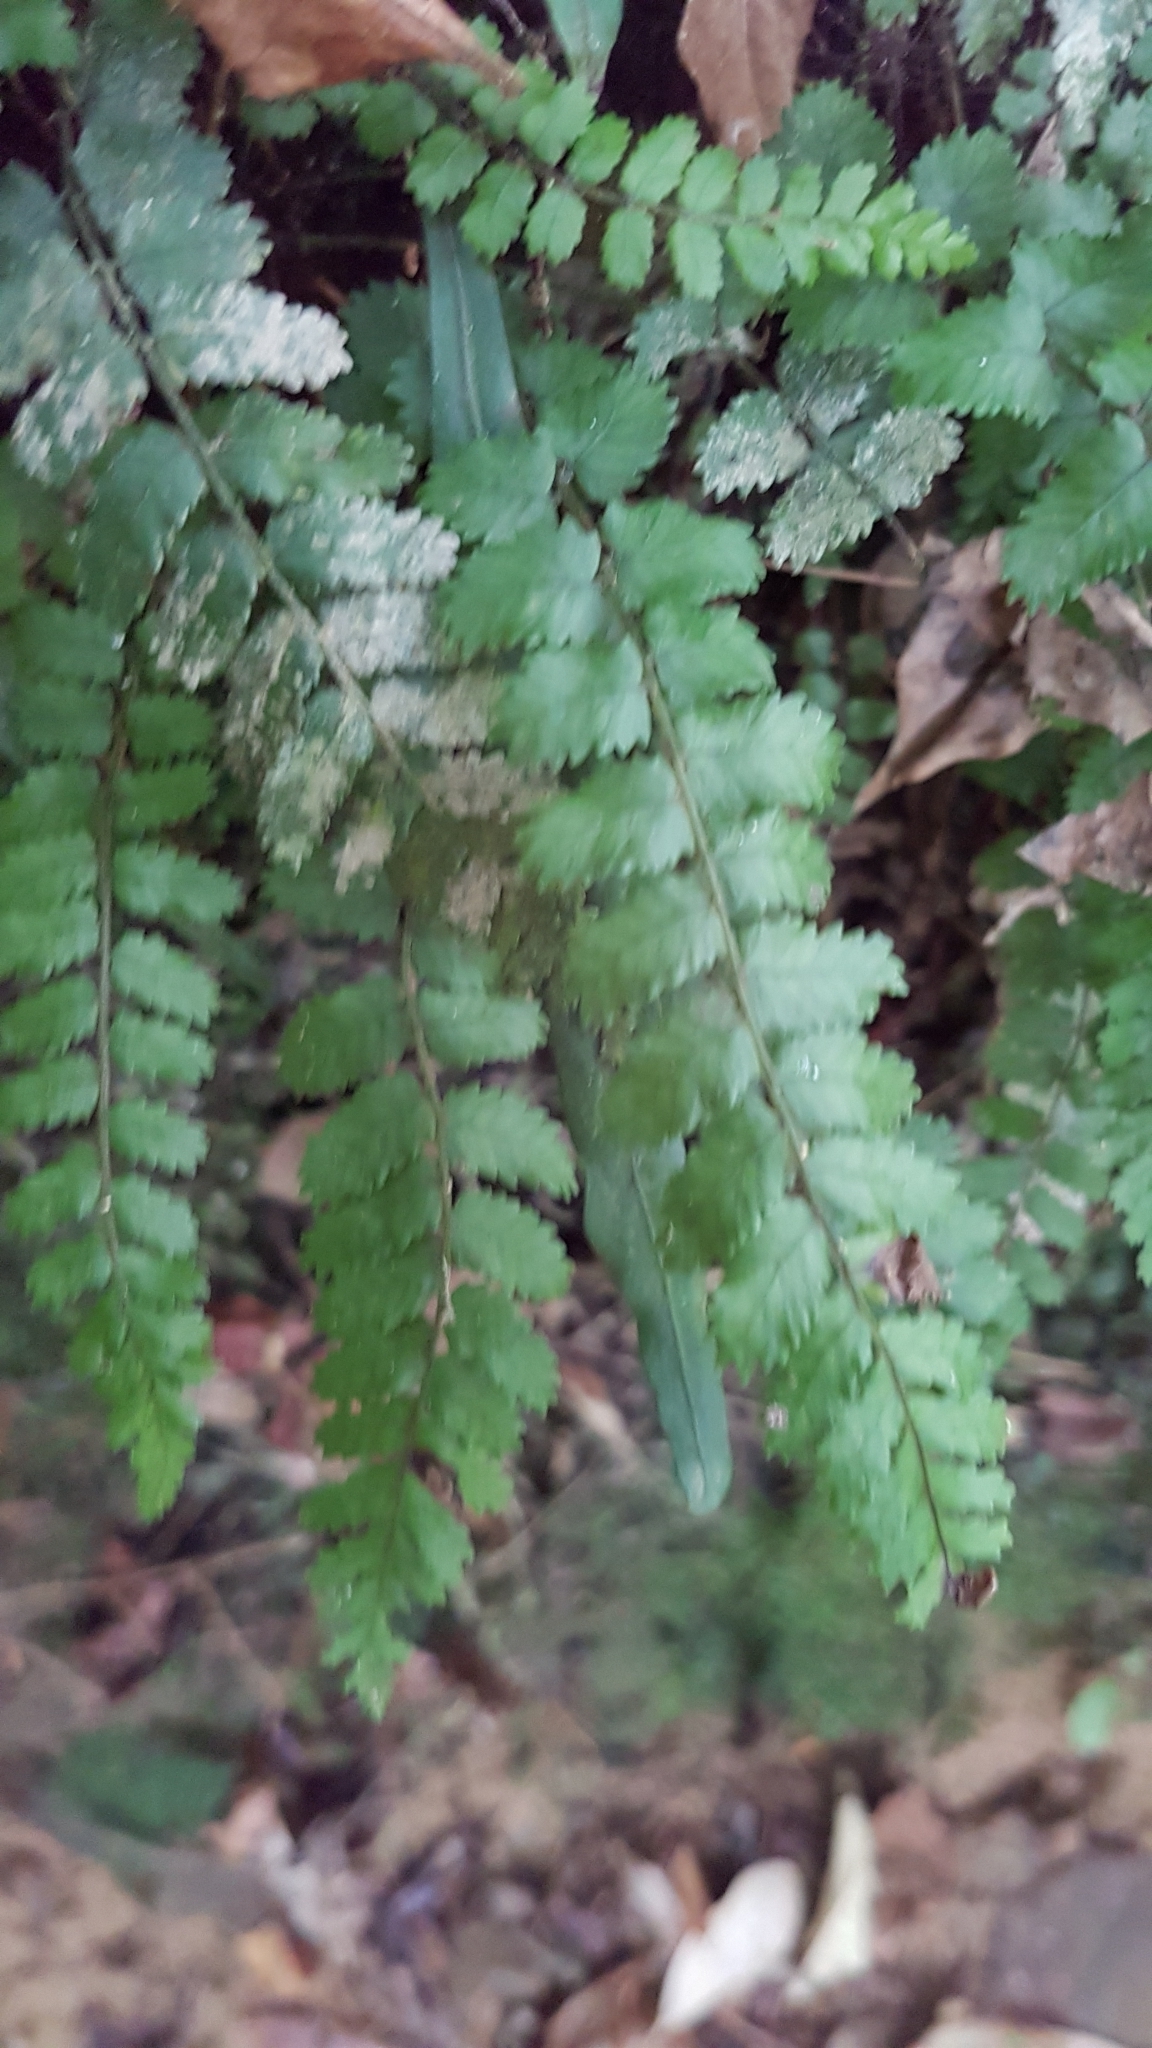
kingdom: Plantae
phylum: Tracheophyta
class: Polypodiopsida
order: Polypodiales
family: Blechnaceae
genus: Icarus
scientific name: Icarus filiformis
